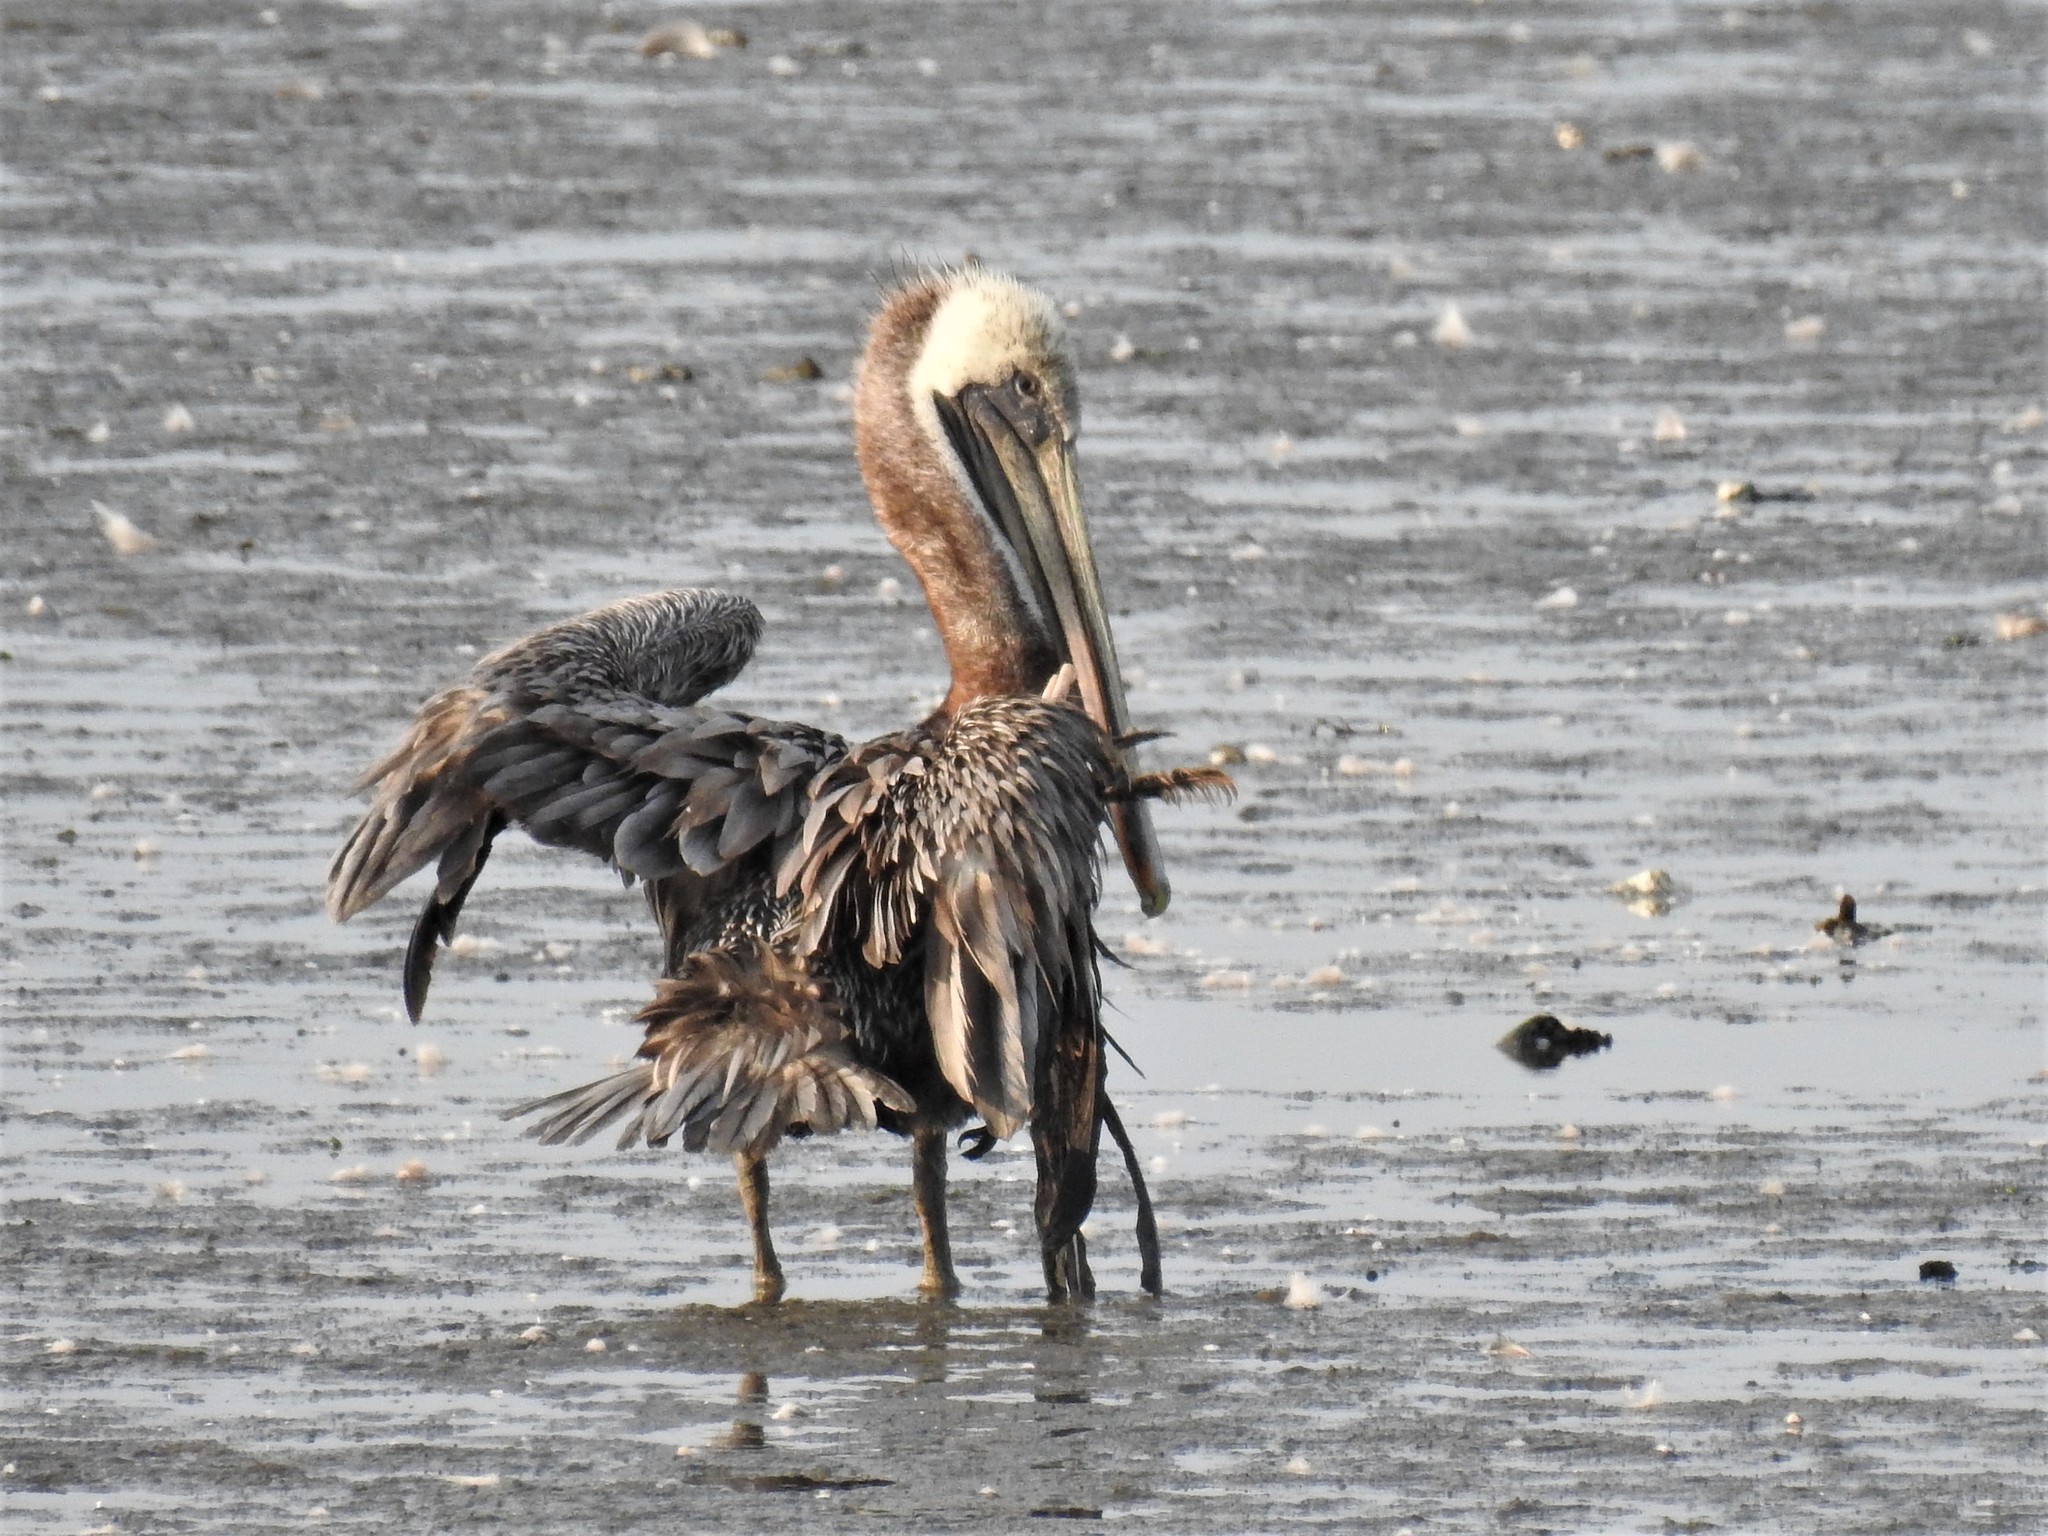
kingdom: Animalia
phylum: Chordata
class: Aves
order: Pelecaniformes
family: Pelecanidae
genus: Pelecanus
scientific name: Pelecanus occidentalis
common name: Brown pelican
